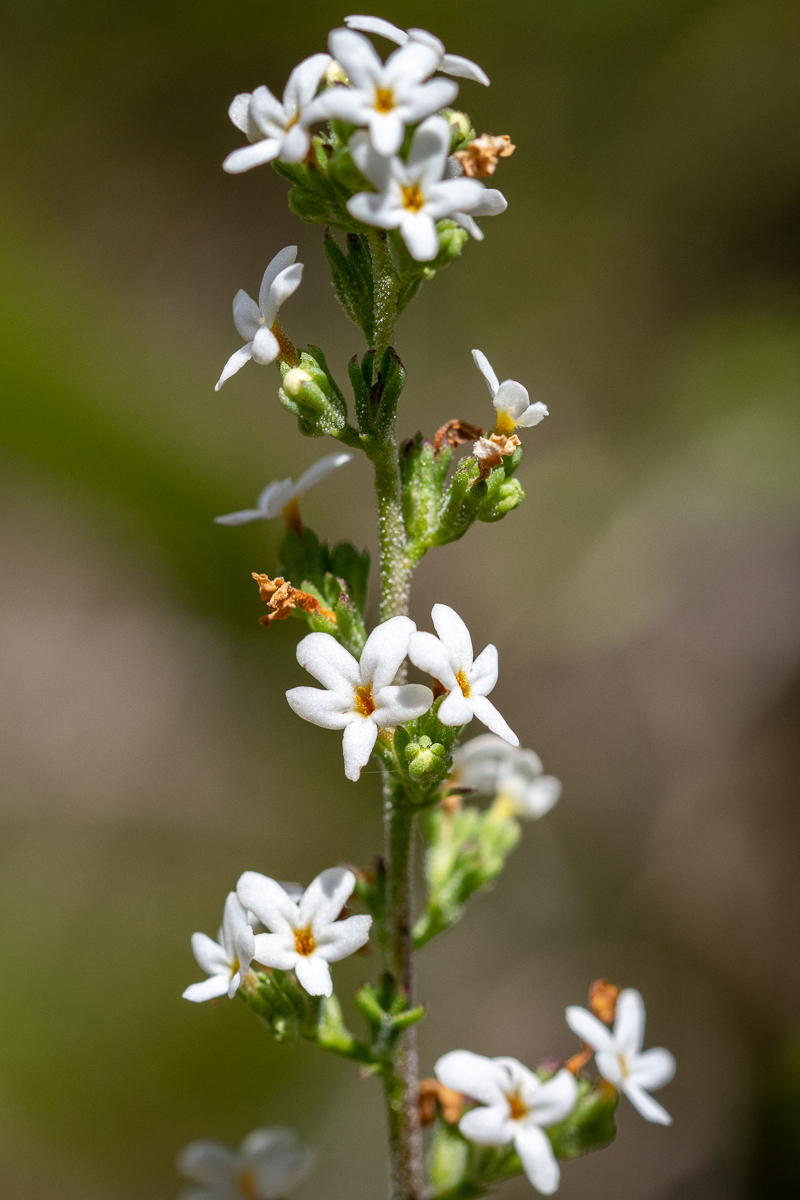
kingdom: Plantae
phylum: Tracheophyta
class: Magnoliopsida
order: Lamiales
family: Scrophulariaceae
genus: Manulea
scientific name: Manulea exigua
